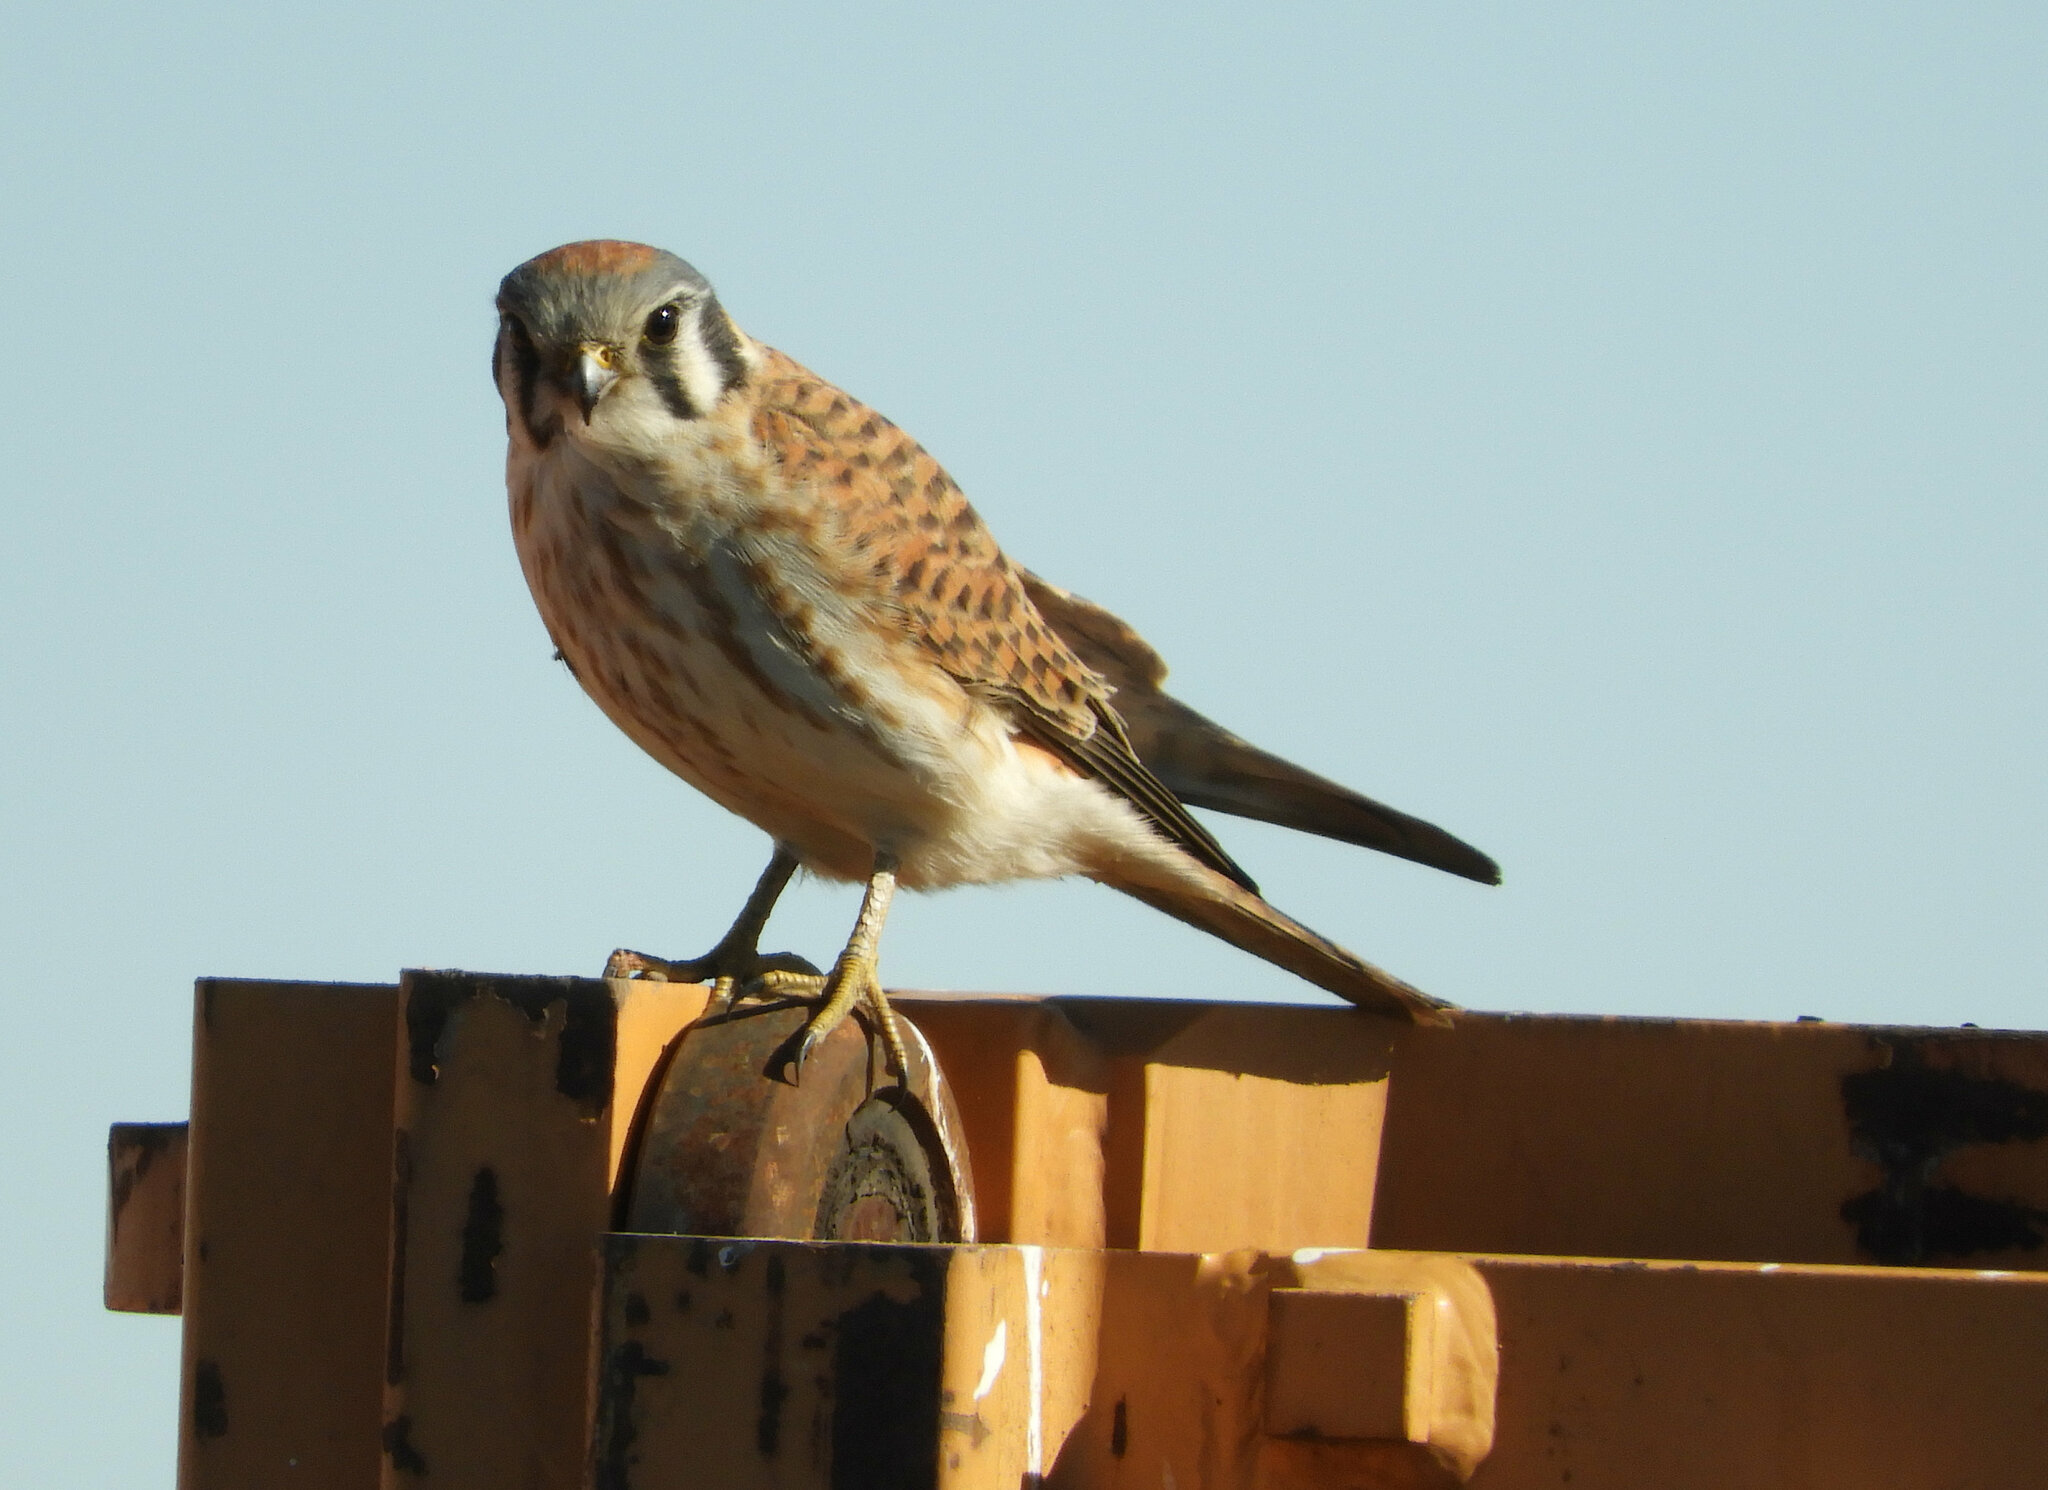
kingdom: Animalia
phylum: Chordata
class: Aves
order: Falconiformes
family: Falconidae
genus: Falco
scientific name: Falco sparverius
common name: American kestrel
